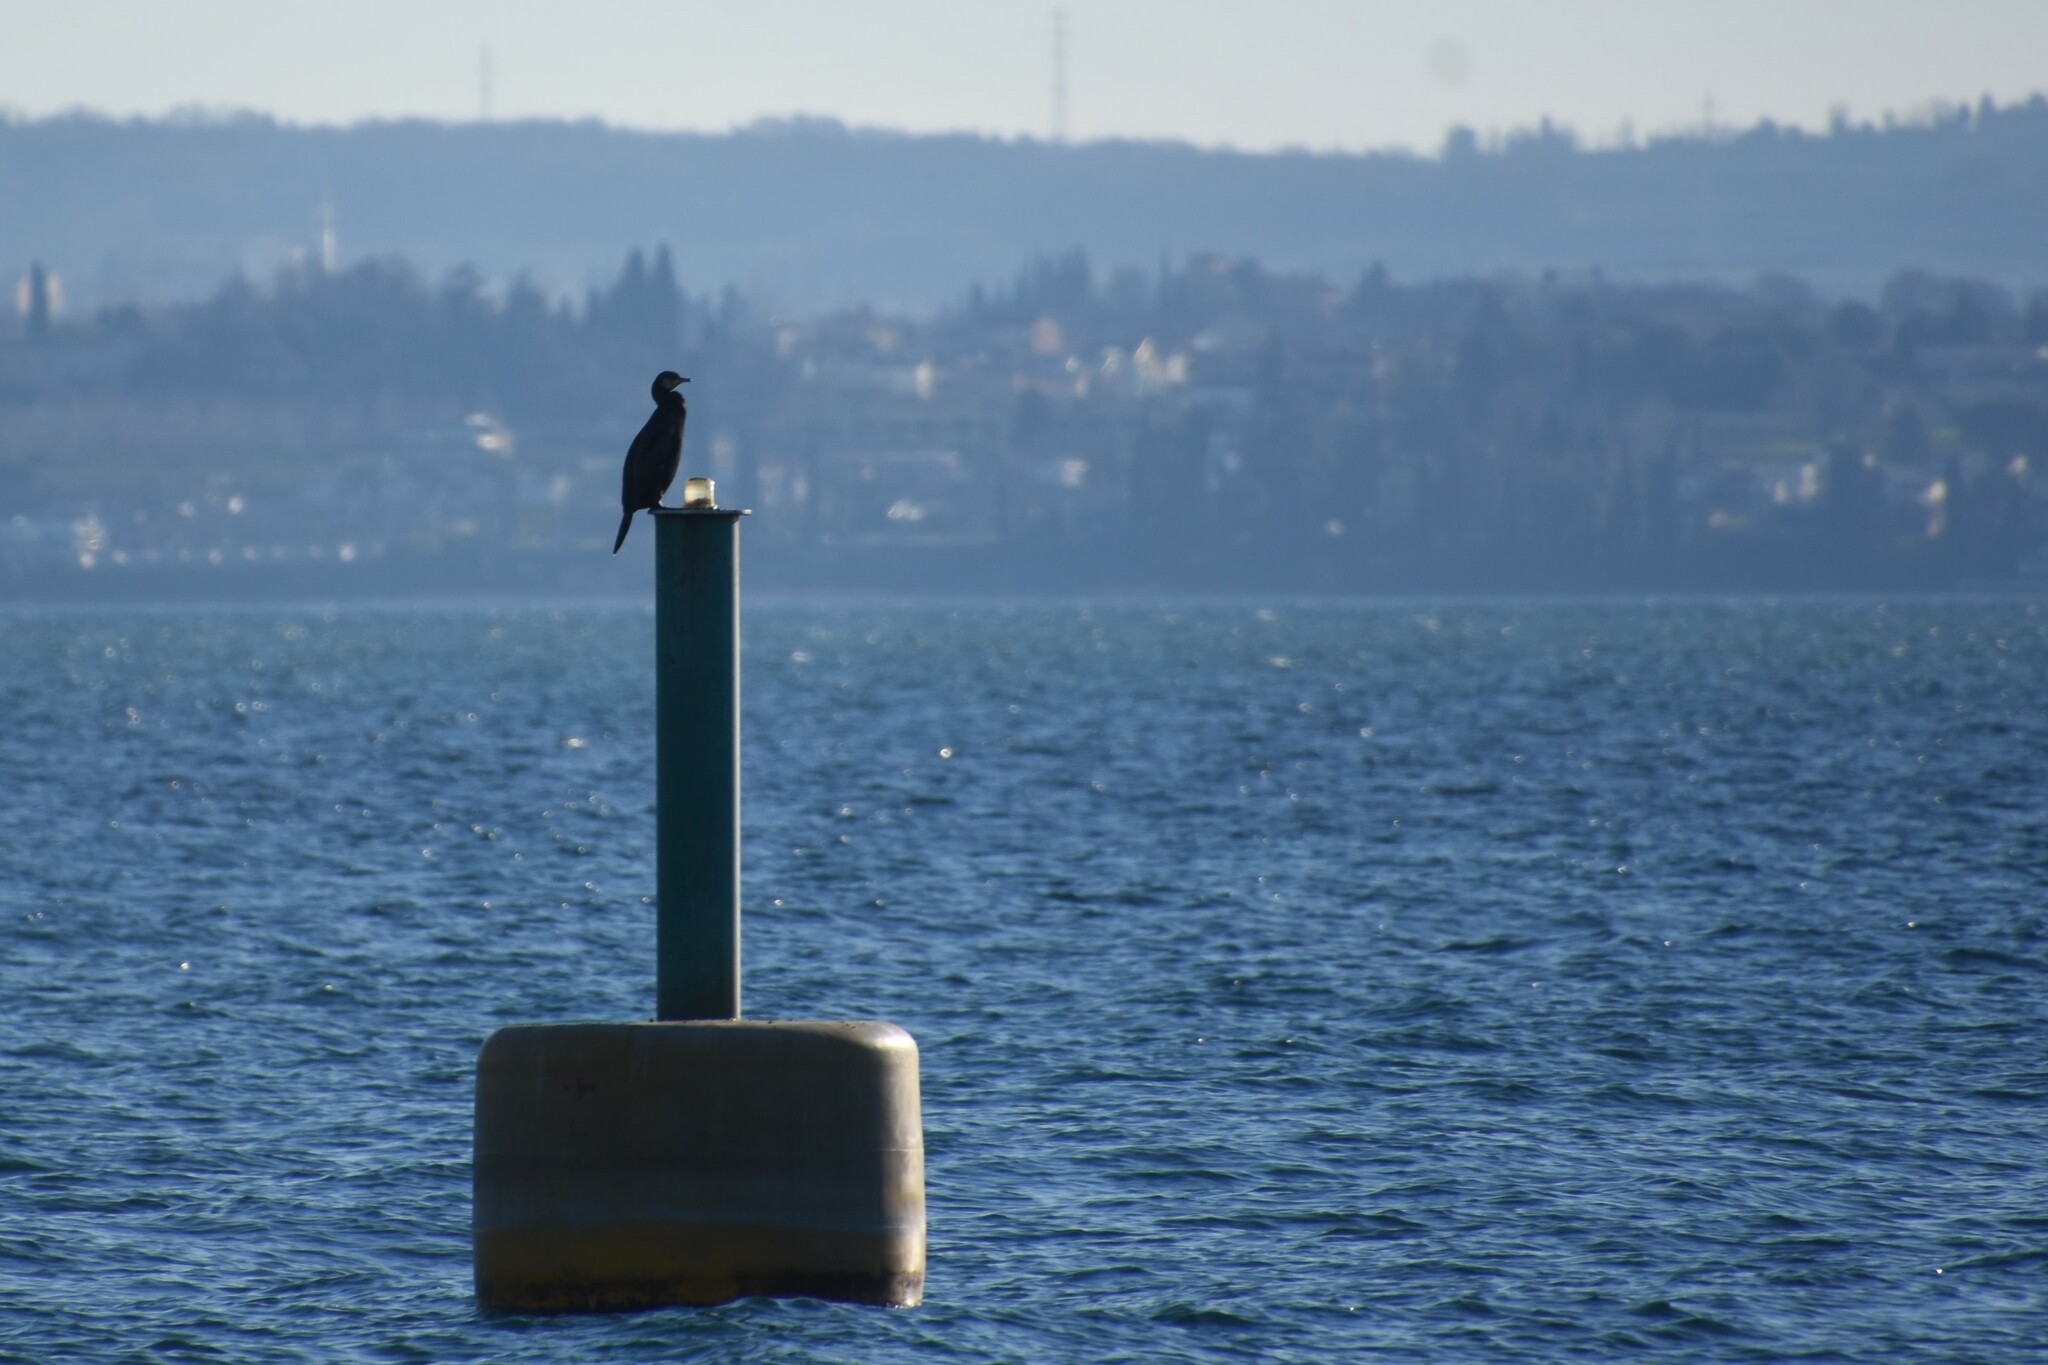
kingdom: Animalia
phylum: Chordata
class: Aves
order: Suliformes
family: Phalacrocoracidae
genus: Phalacrocorax
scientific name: Phalacrocorax carbo
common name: Great cormorant
